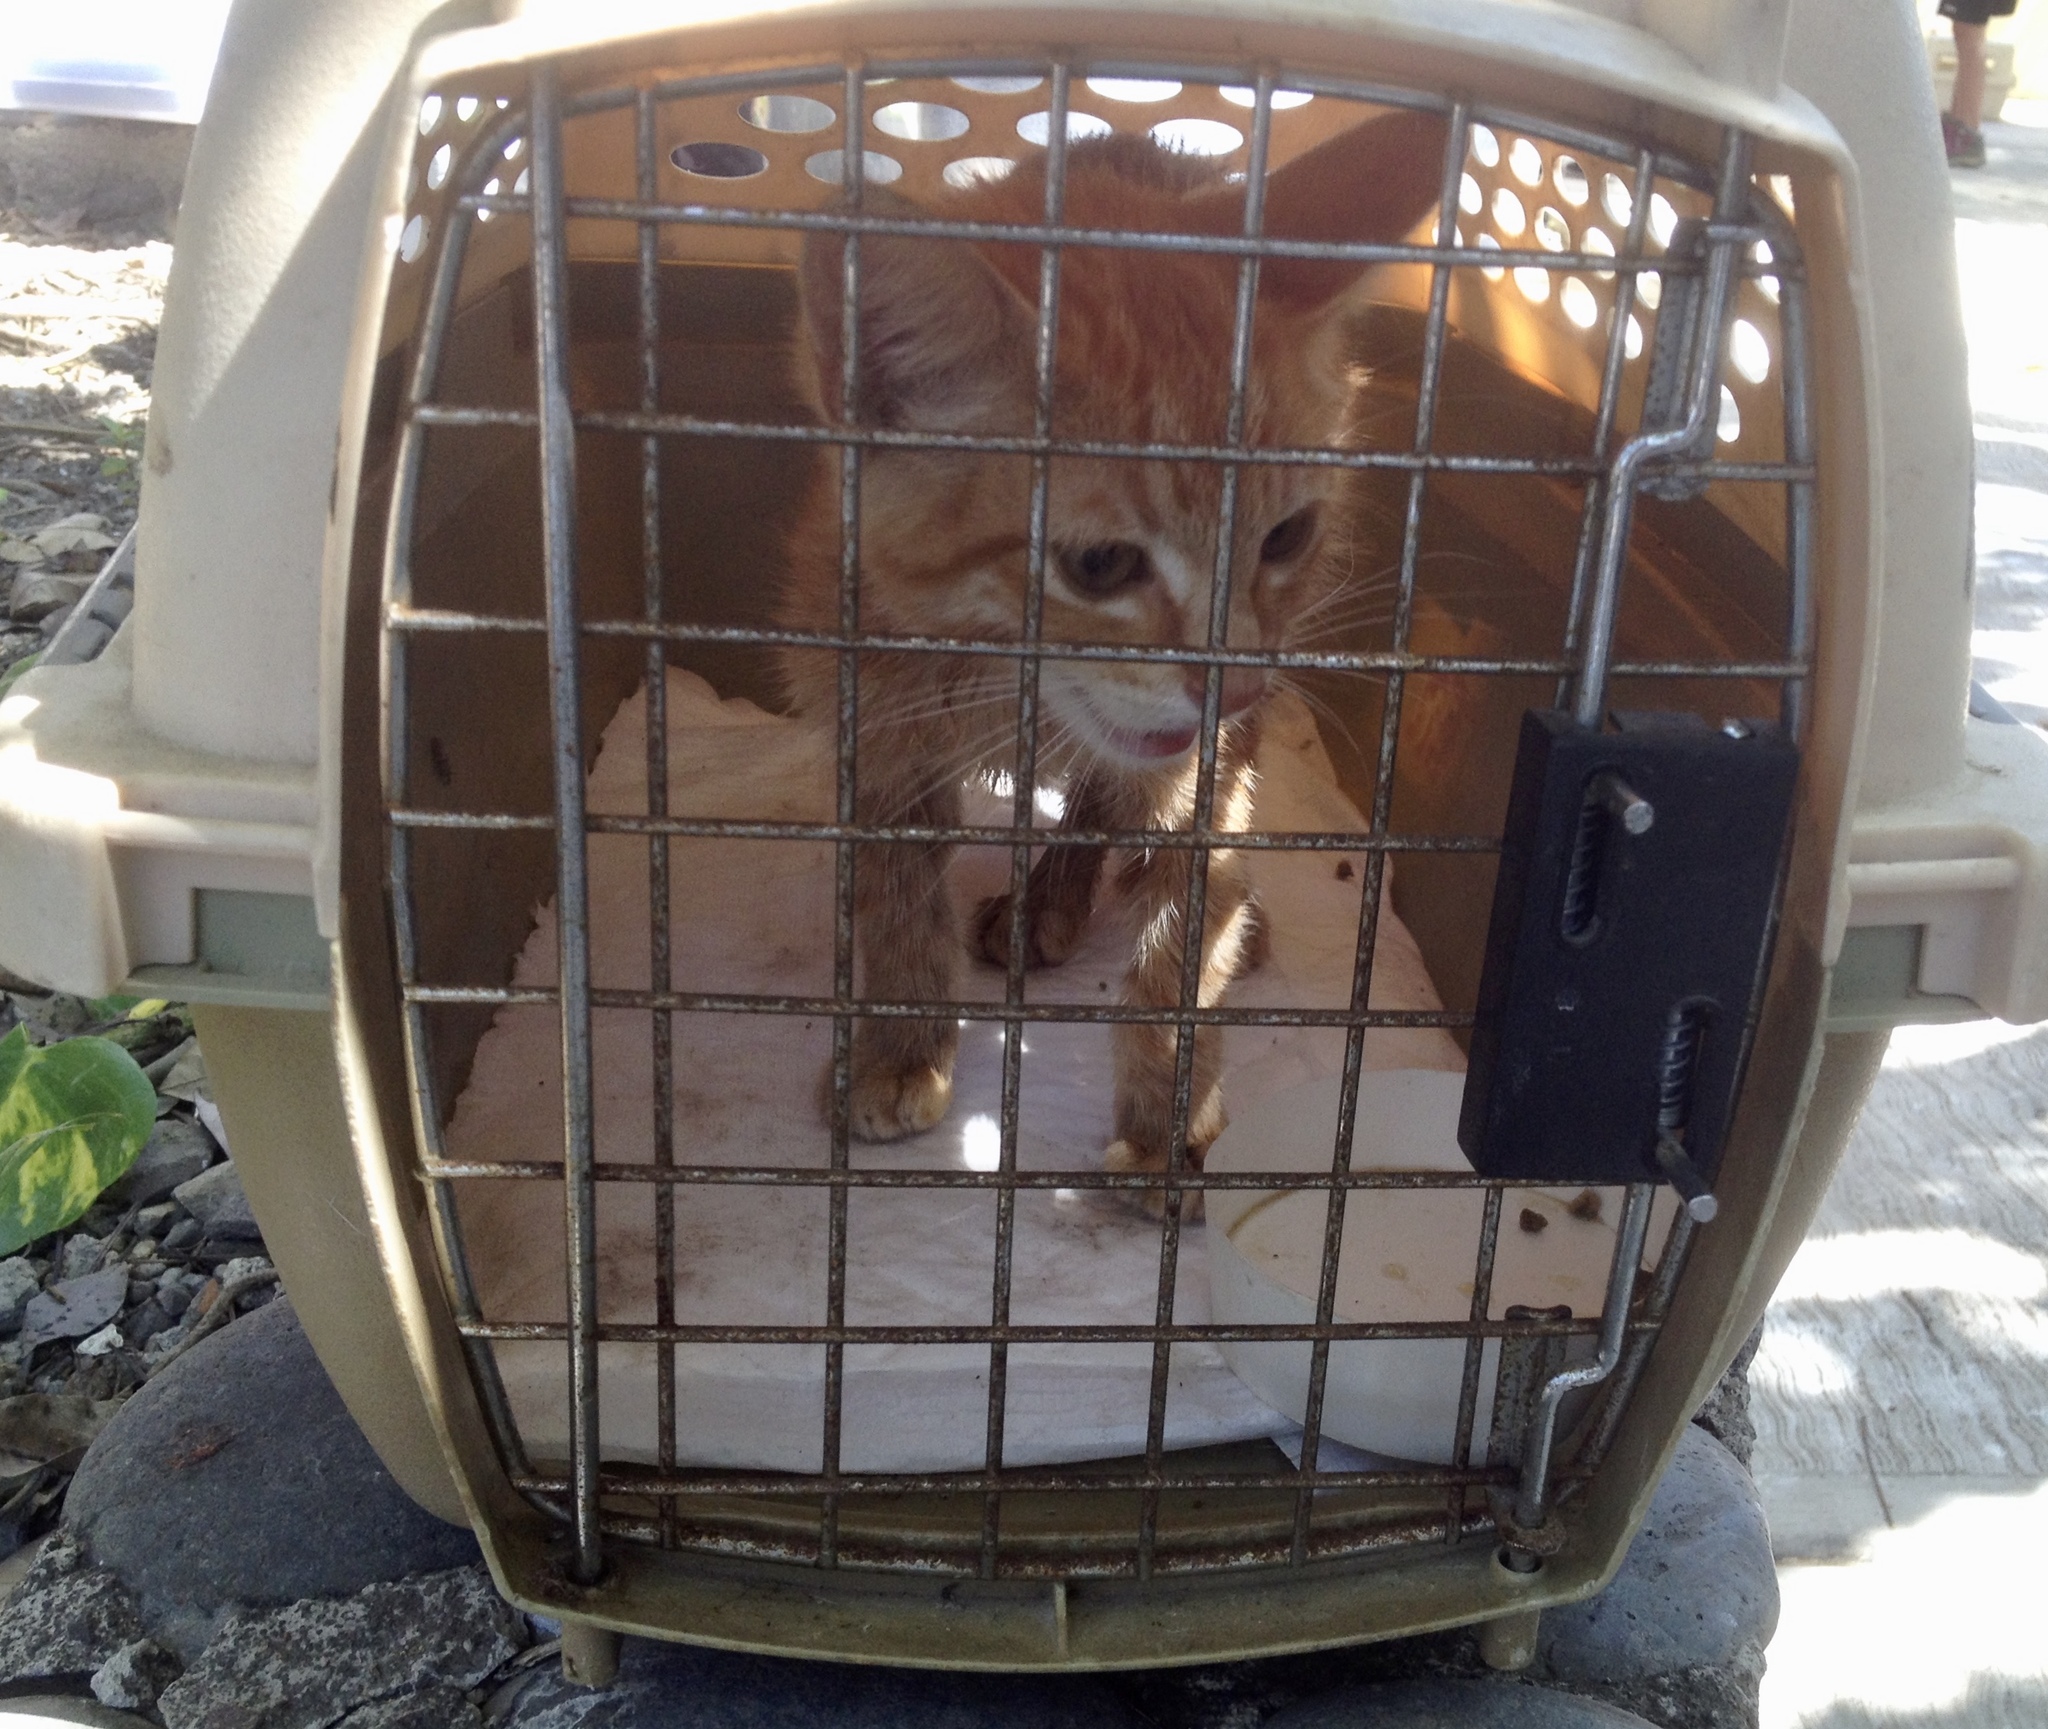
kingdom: Animalia
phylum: Chordata
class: Mammalia
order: Carnivora
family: Felidae
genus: Felis
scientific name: Felis catus
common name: Domestic cat
